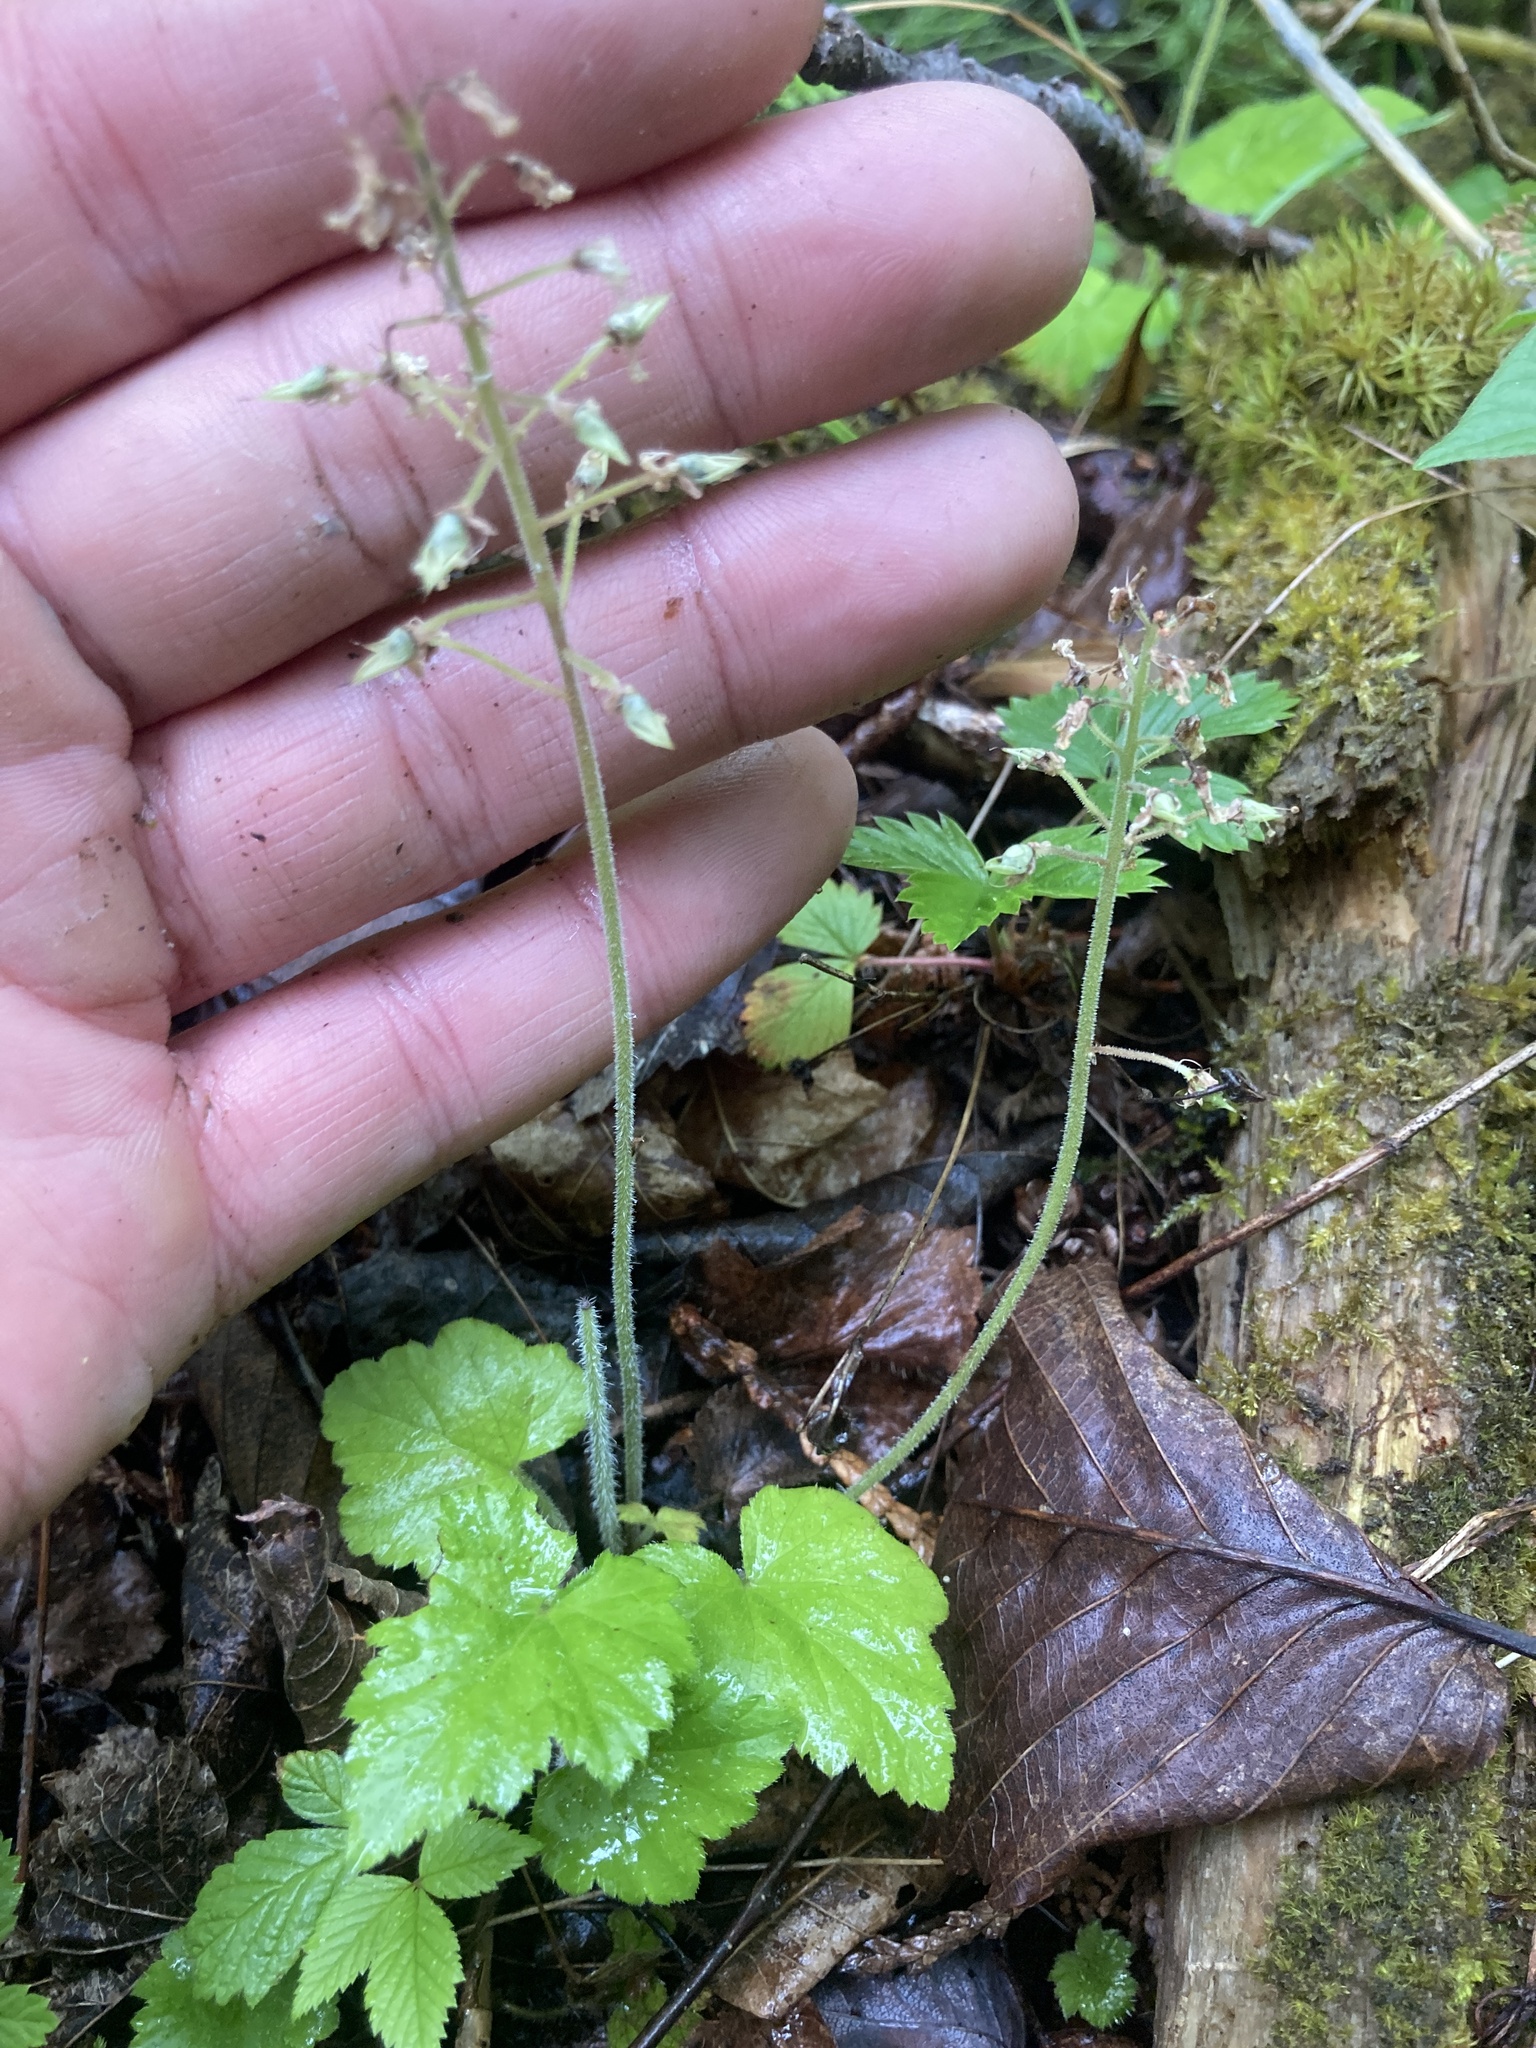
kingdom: Plantae
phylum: Tracheophyta
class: Magnoliopsida
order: Saxifragales
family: Saxifragaceae
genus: Tiarella
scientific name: Tiarella stolonifera
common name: Stoloniferous foamflower
